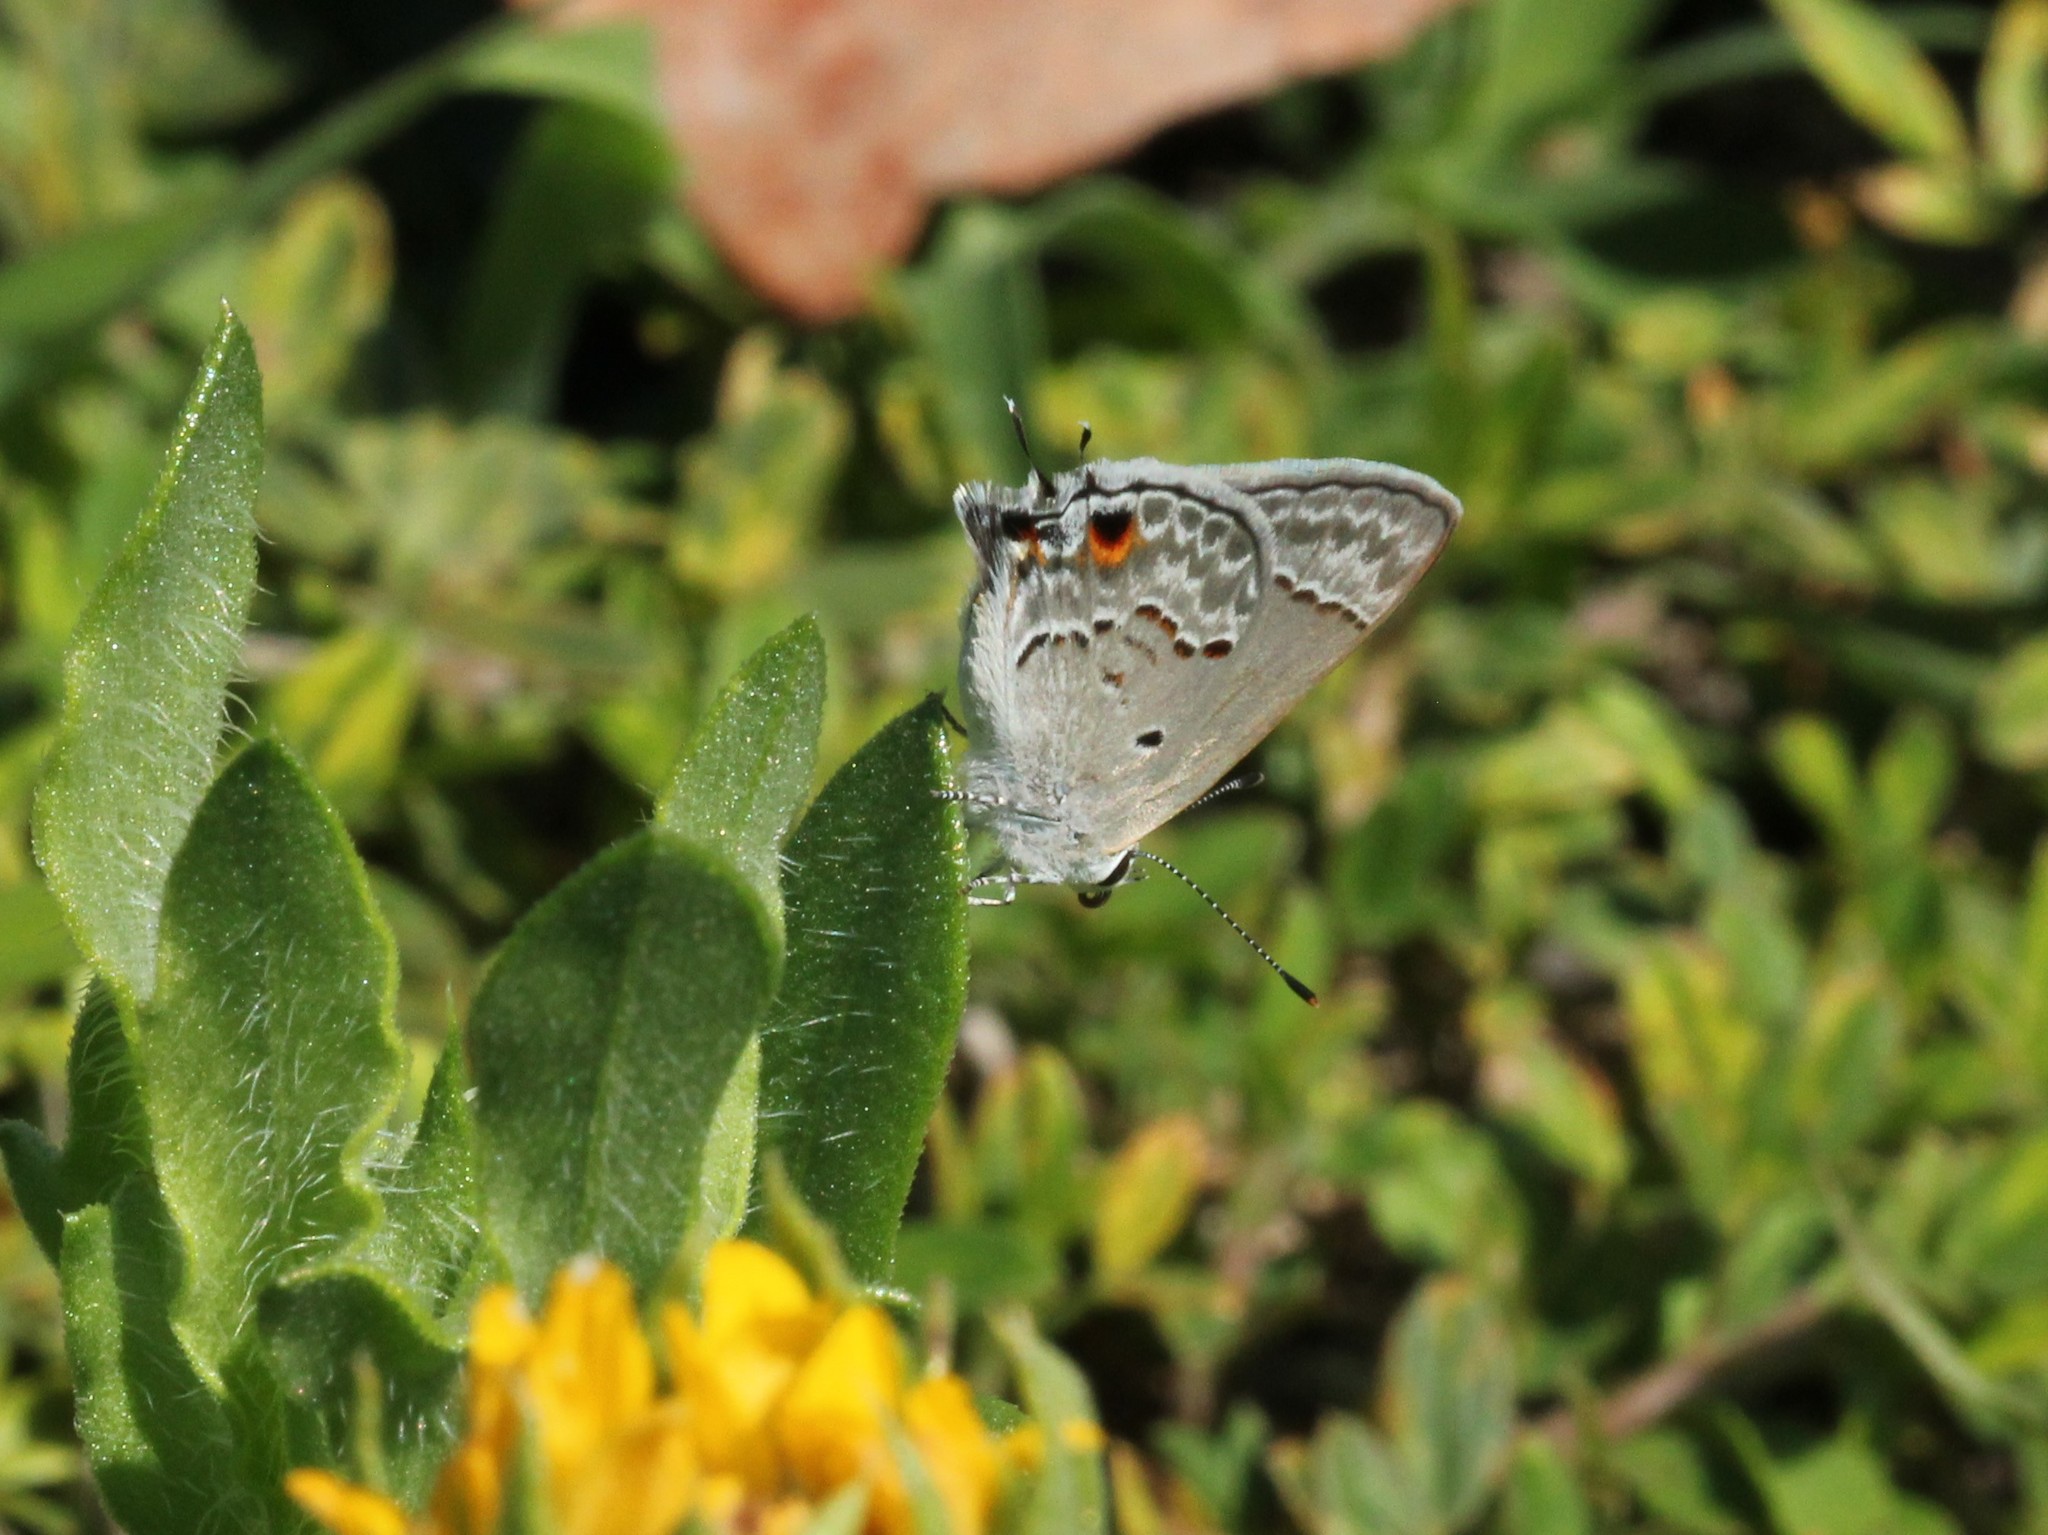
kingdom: Animalia
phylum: Arthropoda
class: Insecta
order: Lepidoptera
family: Lycaenidae
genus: Callicista
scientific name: Callicista columella
